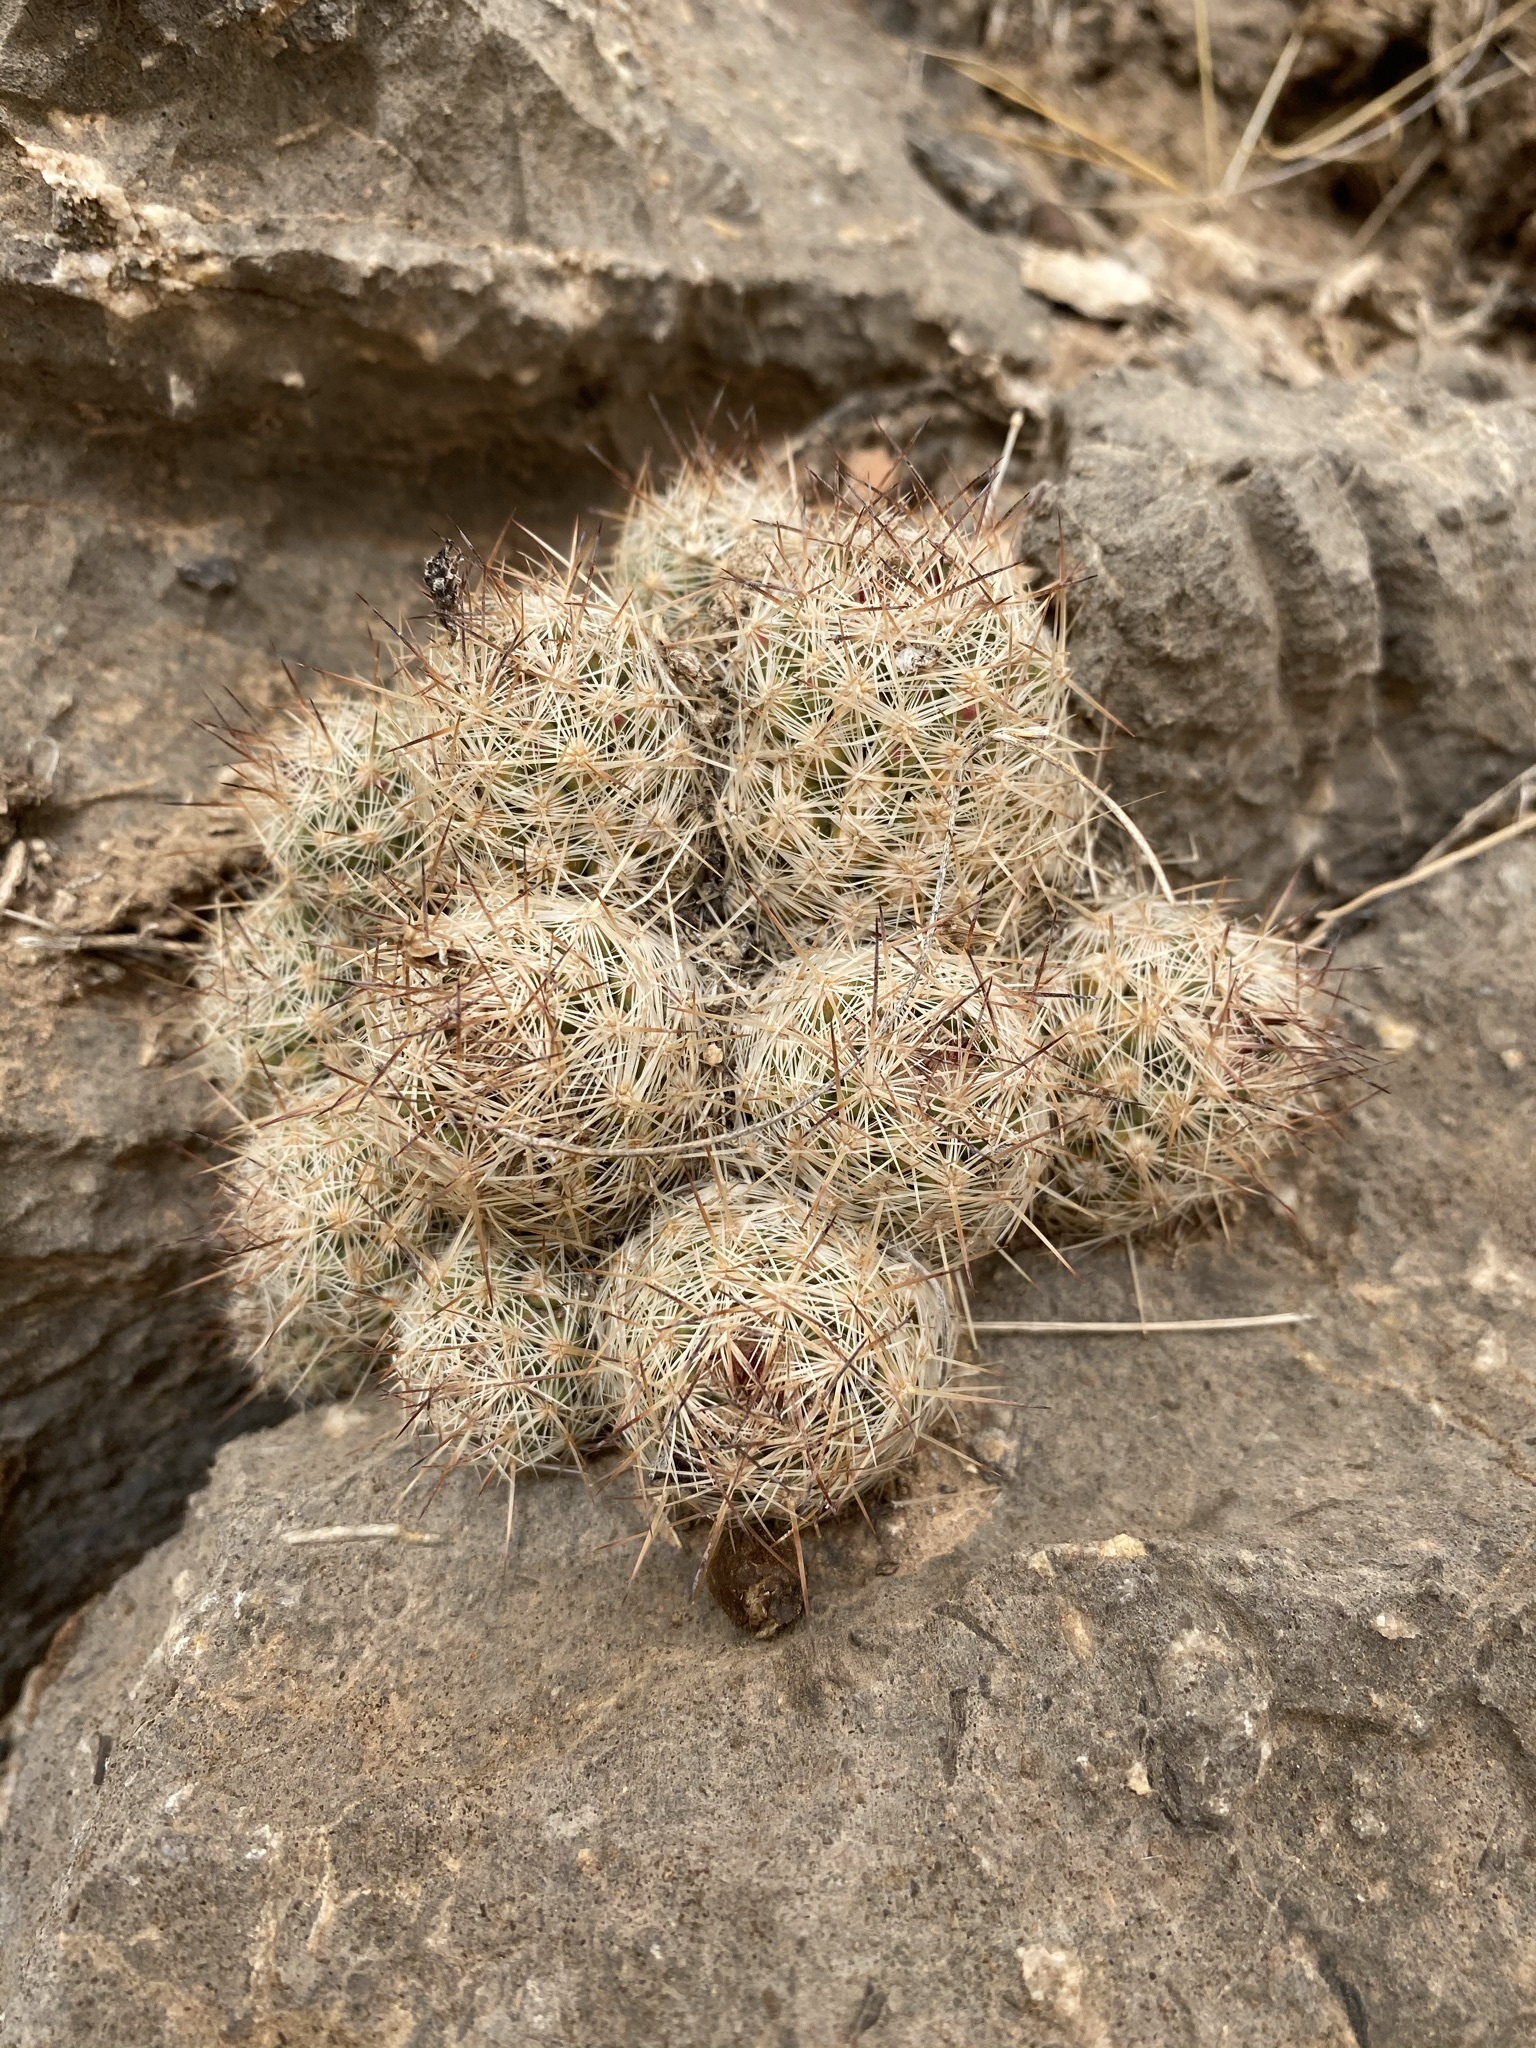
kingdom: Plantae
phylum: Tracheophyta
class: Magnoliopsida
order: Caryophyllales
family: Cactaceae
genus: Pelecyphora
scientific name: Pelecyphora tuberculosa
